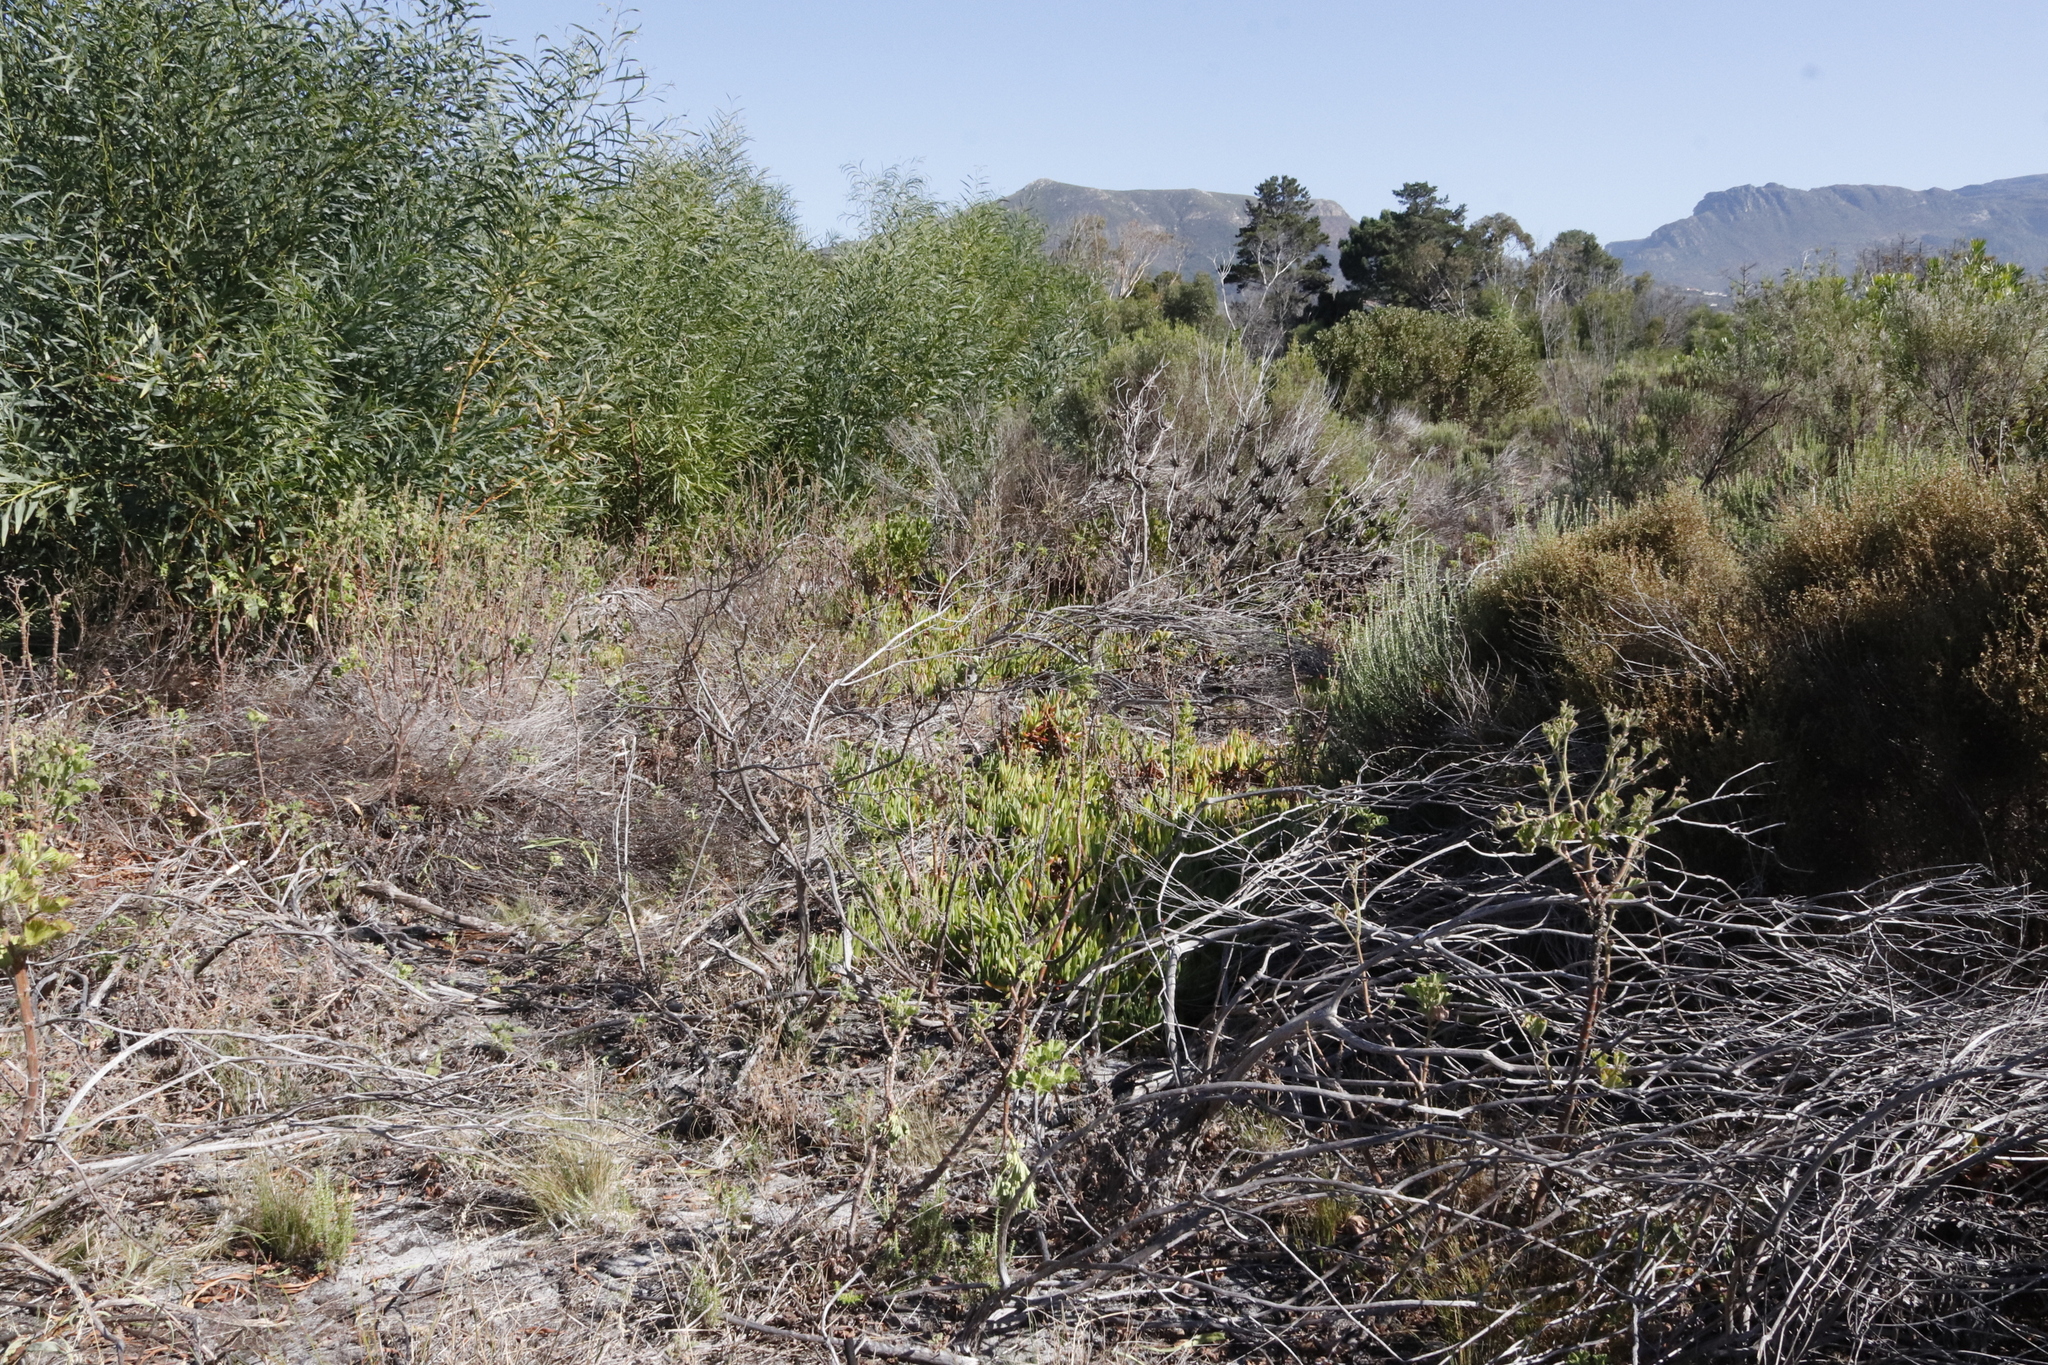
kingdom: Plantae
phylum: Tracheophyta
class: Magnoliopsida
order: Caryophyllales
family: Aizoaceae
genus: Carpobrotus
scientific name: Carpobrotus edulis
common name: Hottentot-fig
